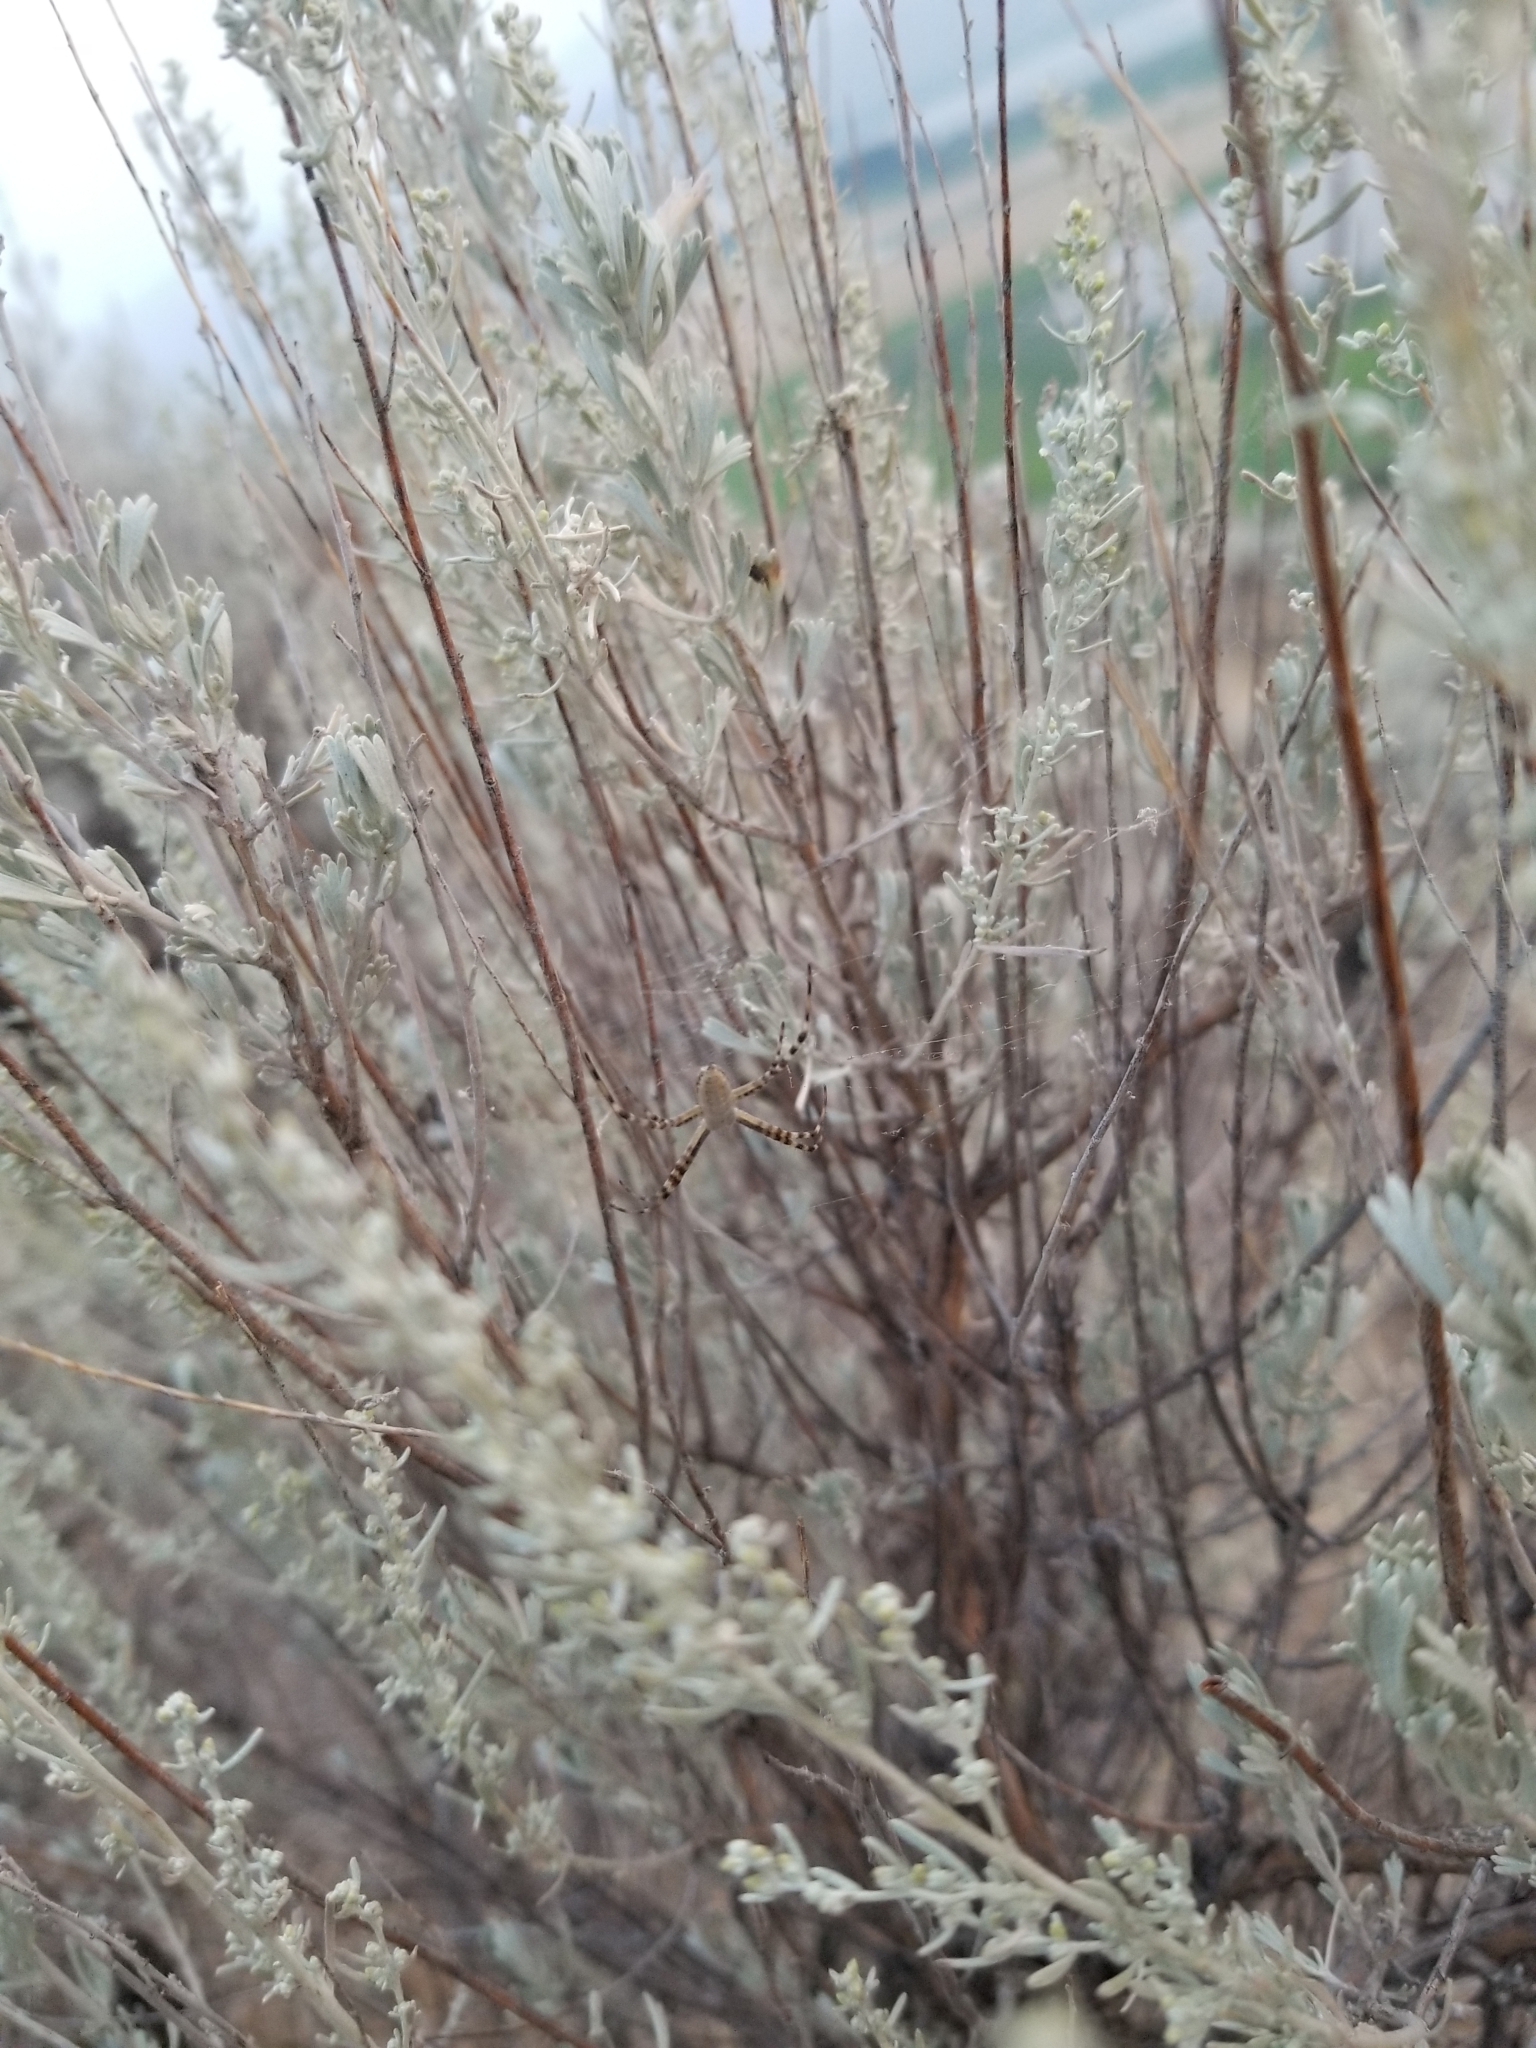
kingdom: Animalia
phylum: Arthropoda
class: Arachnida
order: Araneae
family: Araneidae
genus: Argiope
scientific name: Argiope trifasciata
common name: Banded garden spider
